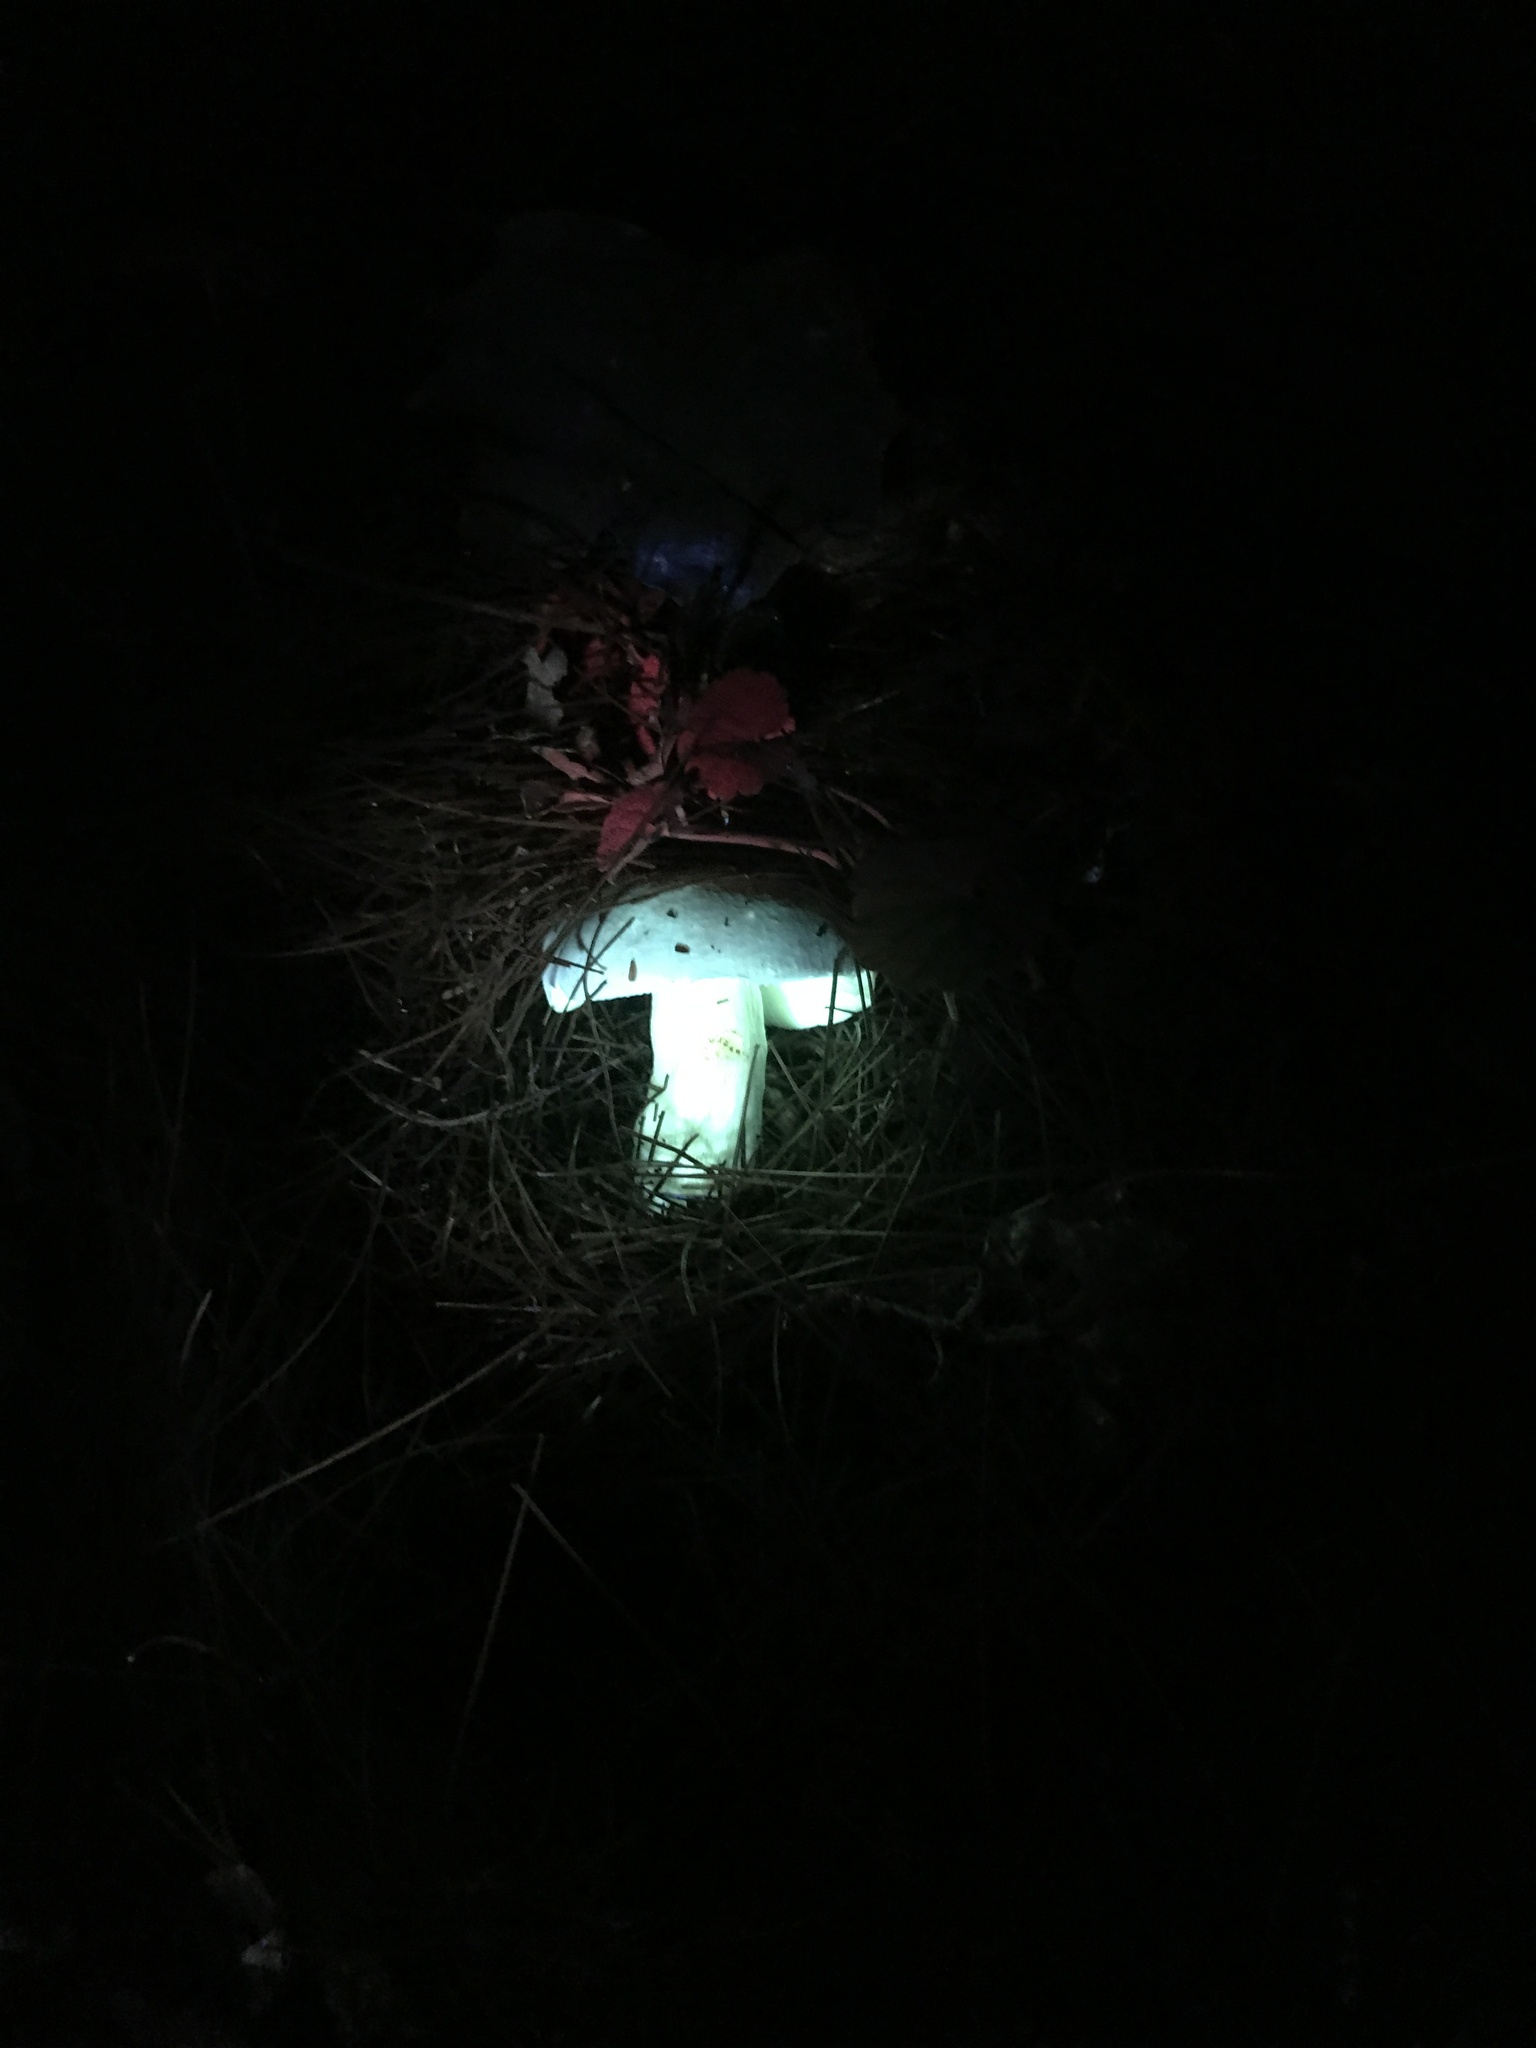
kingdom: Fungi
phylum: Basidiomycota
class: Agaricomycetes
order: Russulales
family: Russulaceae
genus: Russula
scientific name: Russula pulverulenta
